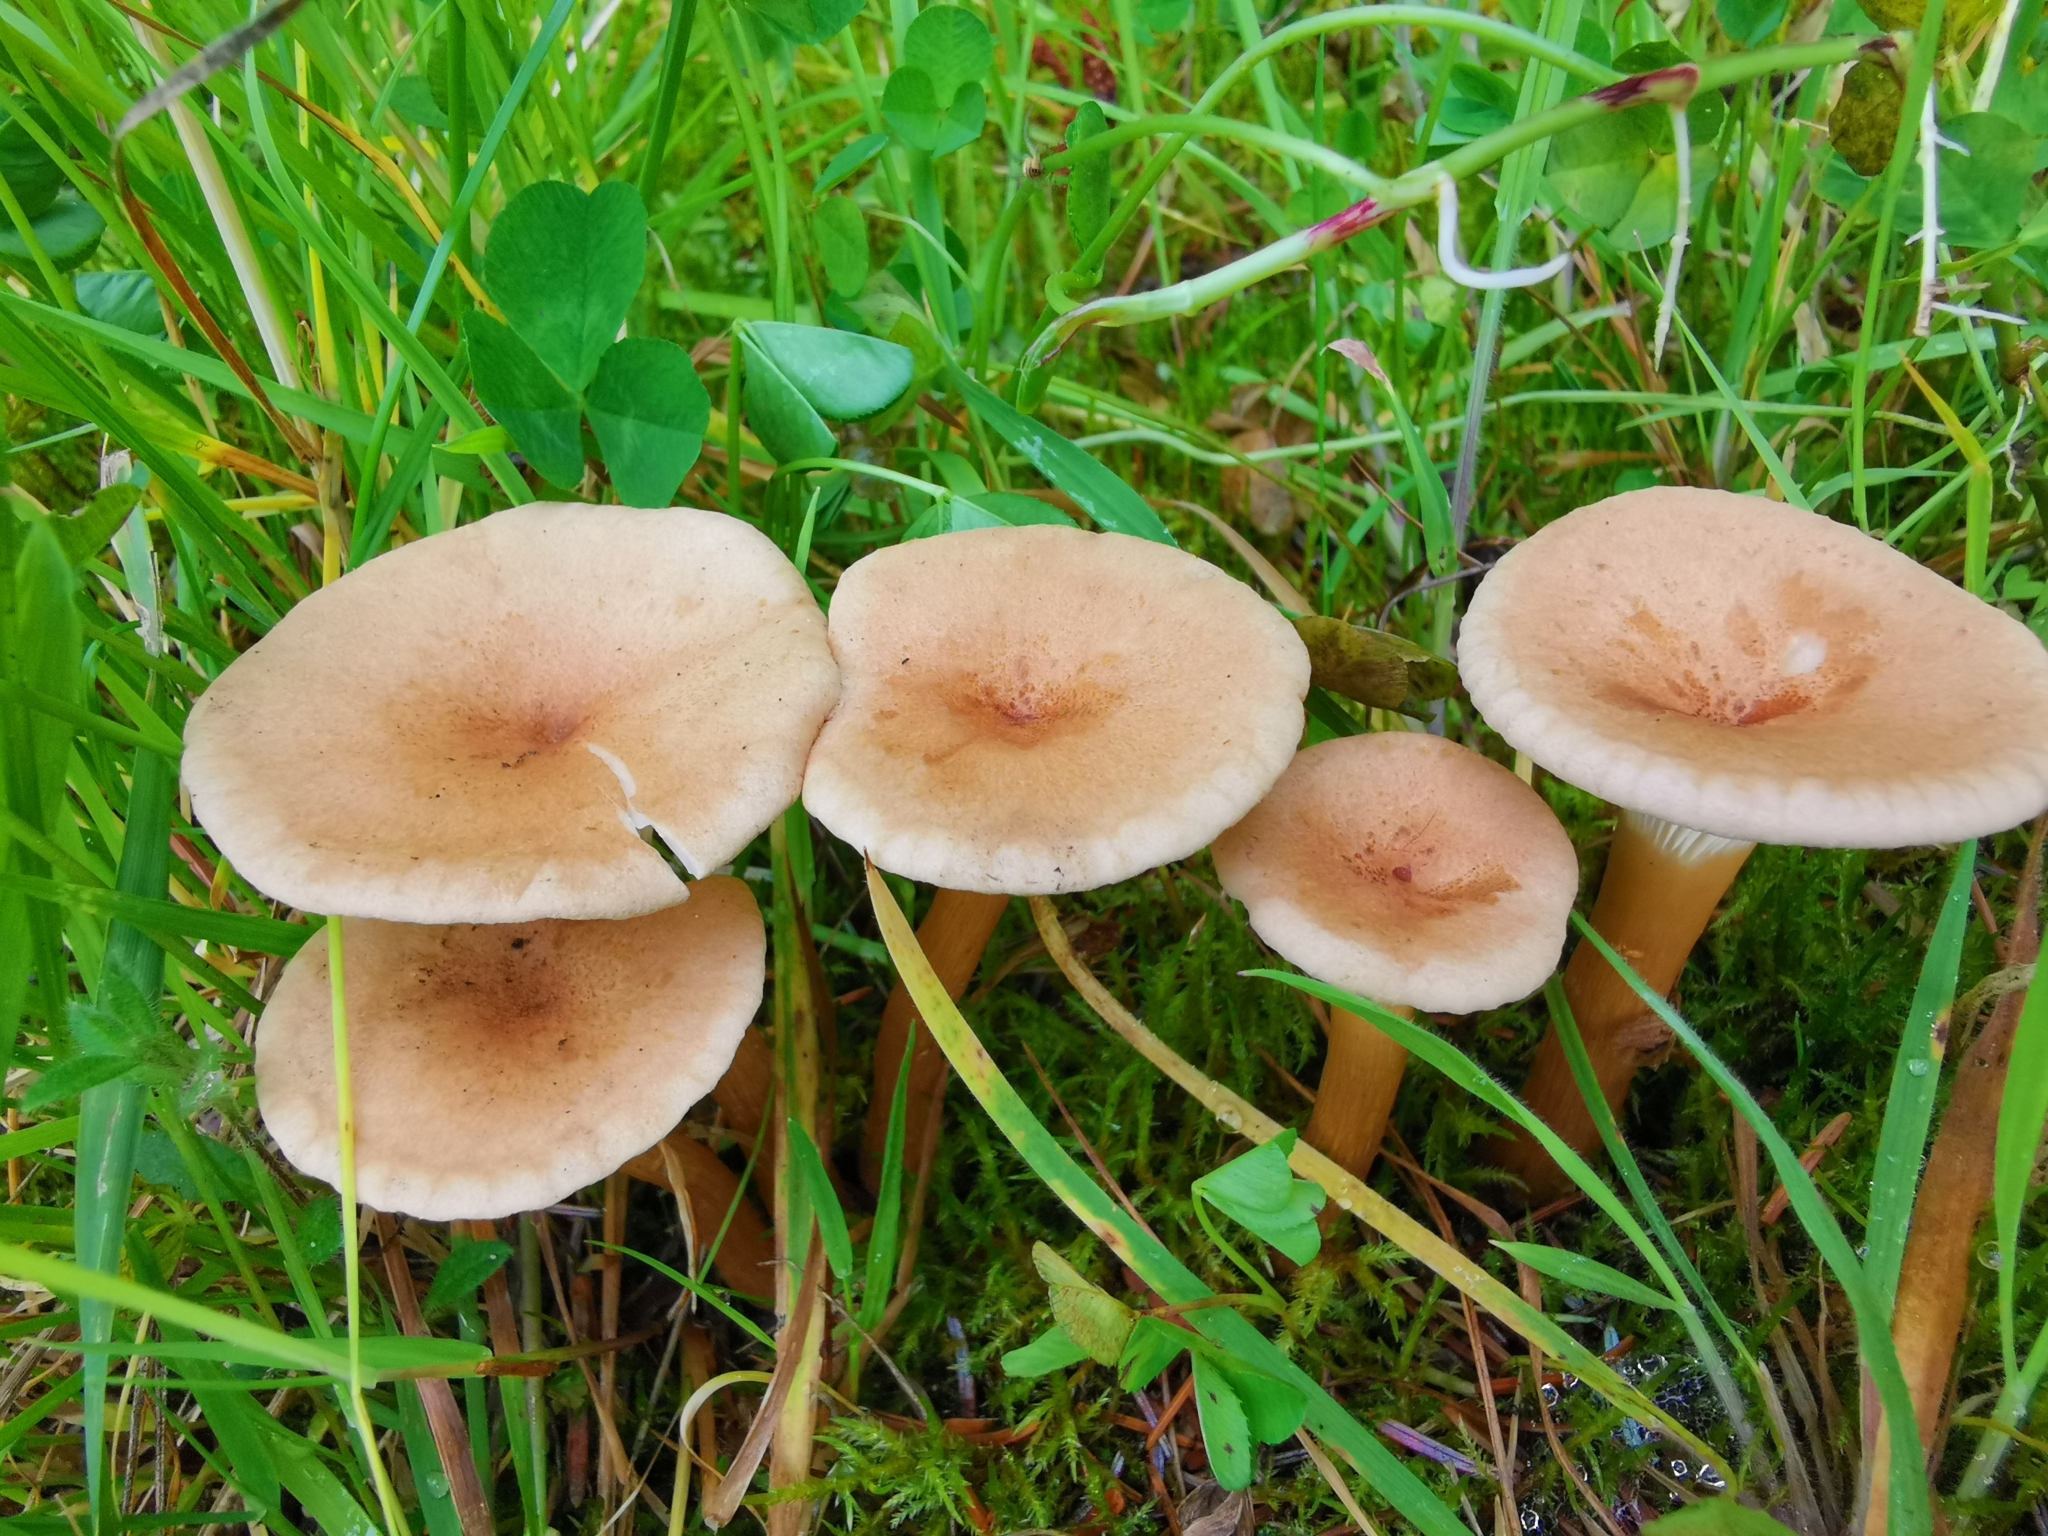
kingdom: Fungi
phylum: Basidiomycota
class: Agaricomycetes
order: Agaricales
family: Tricholomataceae
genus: Infundibulicybe
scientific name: Infundibulicybe gibba
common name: Common funnel
